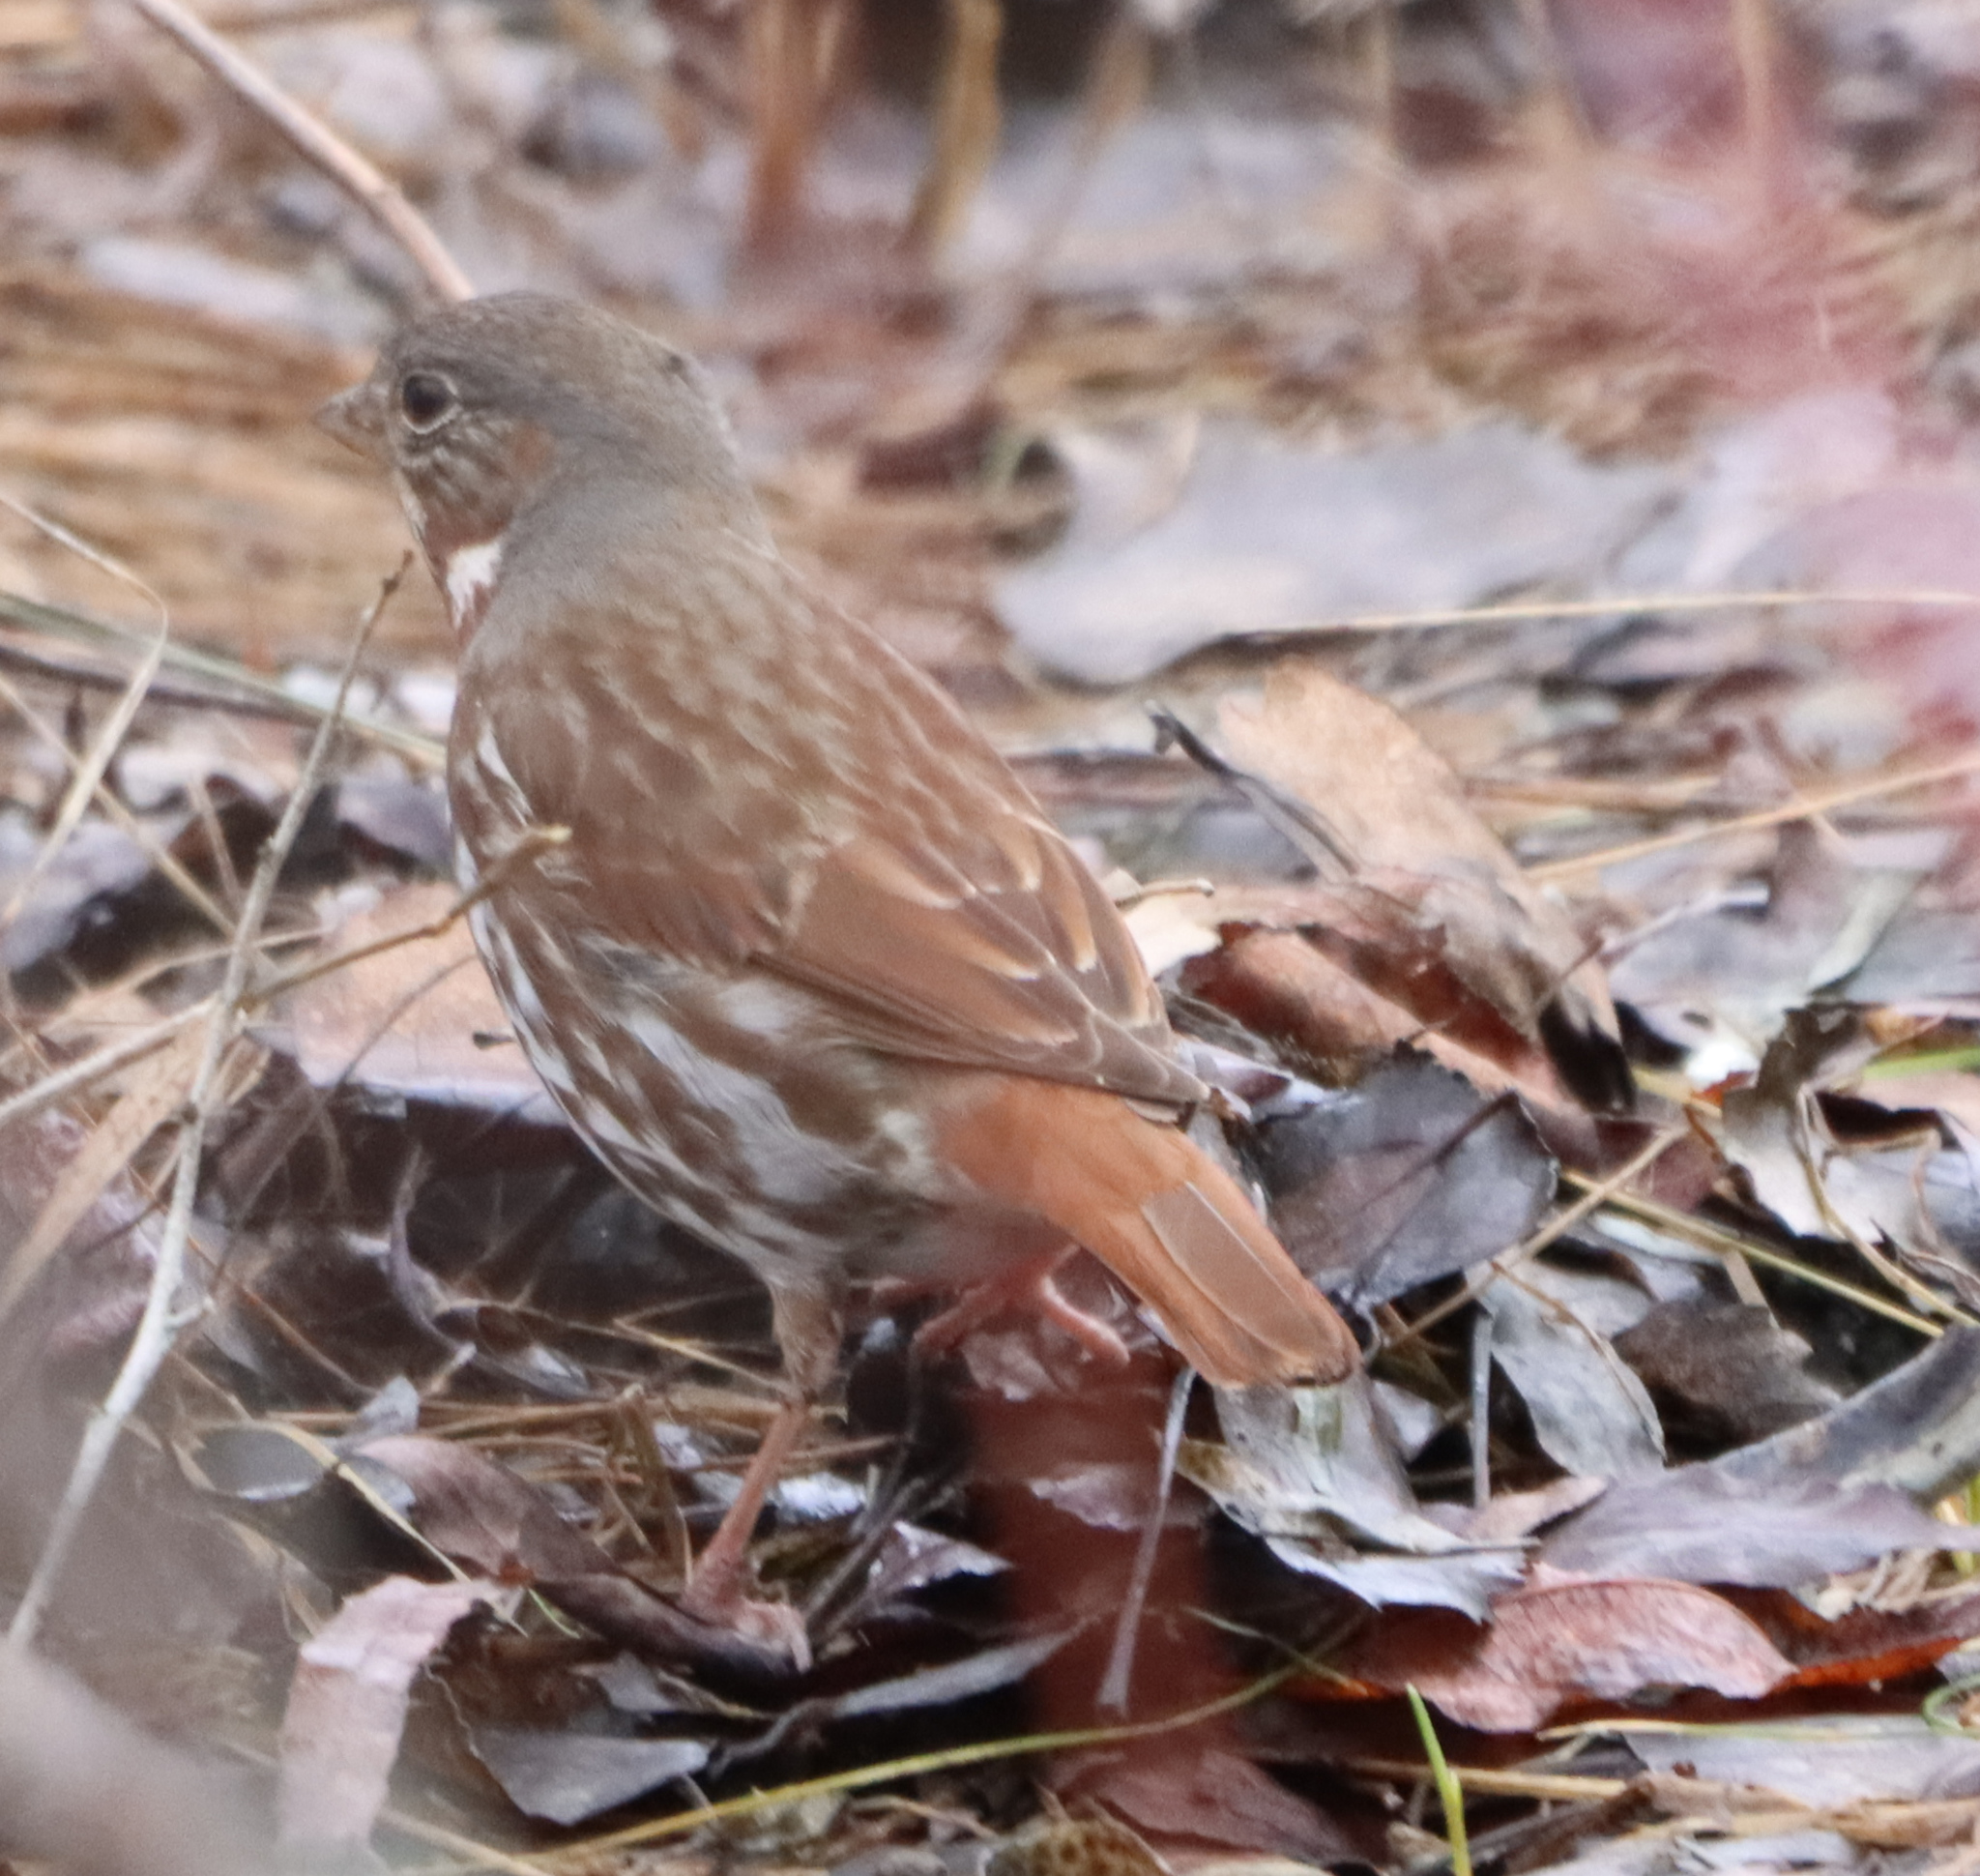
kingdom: Animalia
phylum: Chordata
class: Aves
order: Passeriformes
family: Passerellidae
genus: Passerella
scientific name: Passerella iliaca
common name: Fox sparrow
